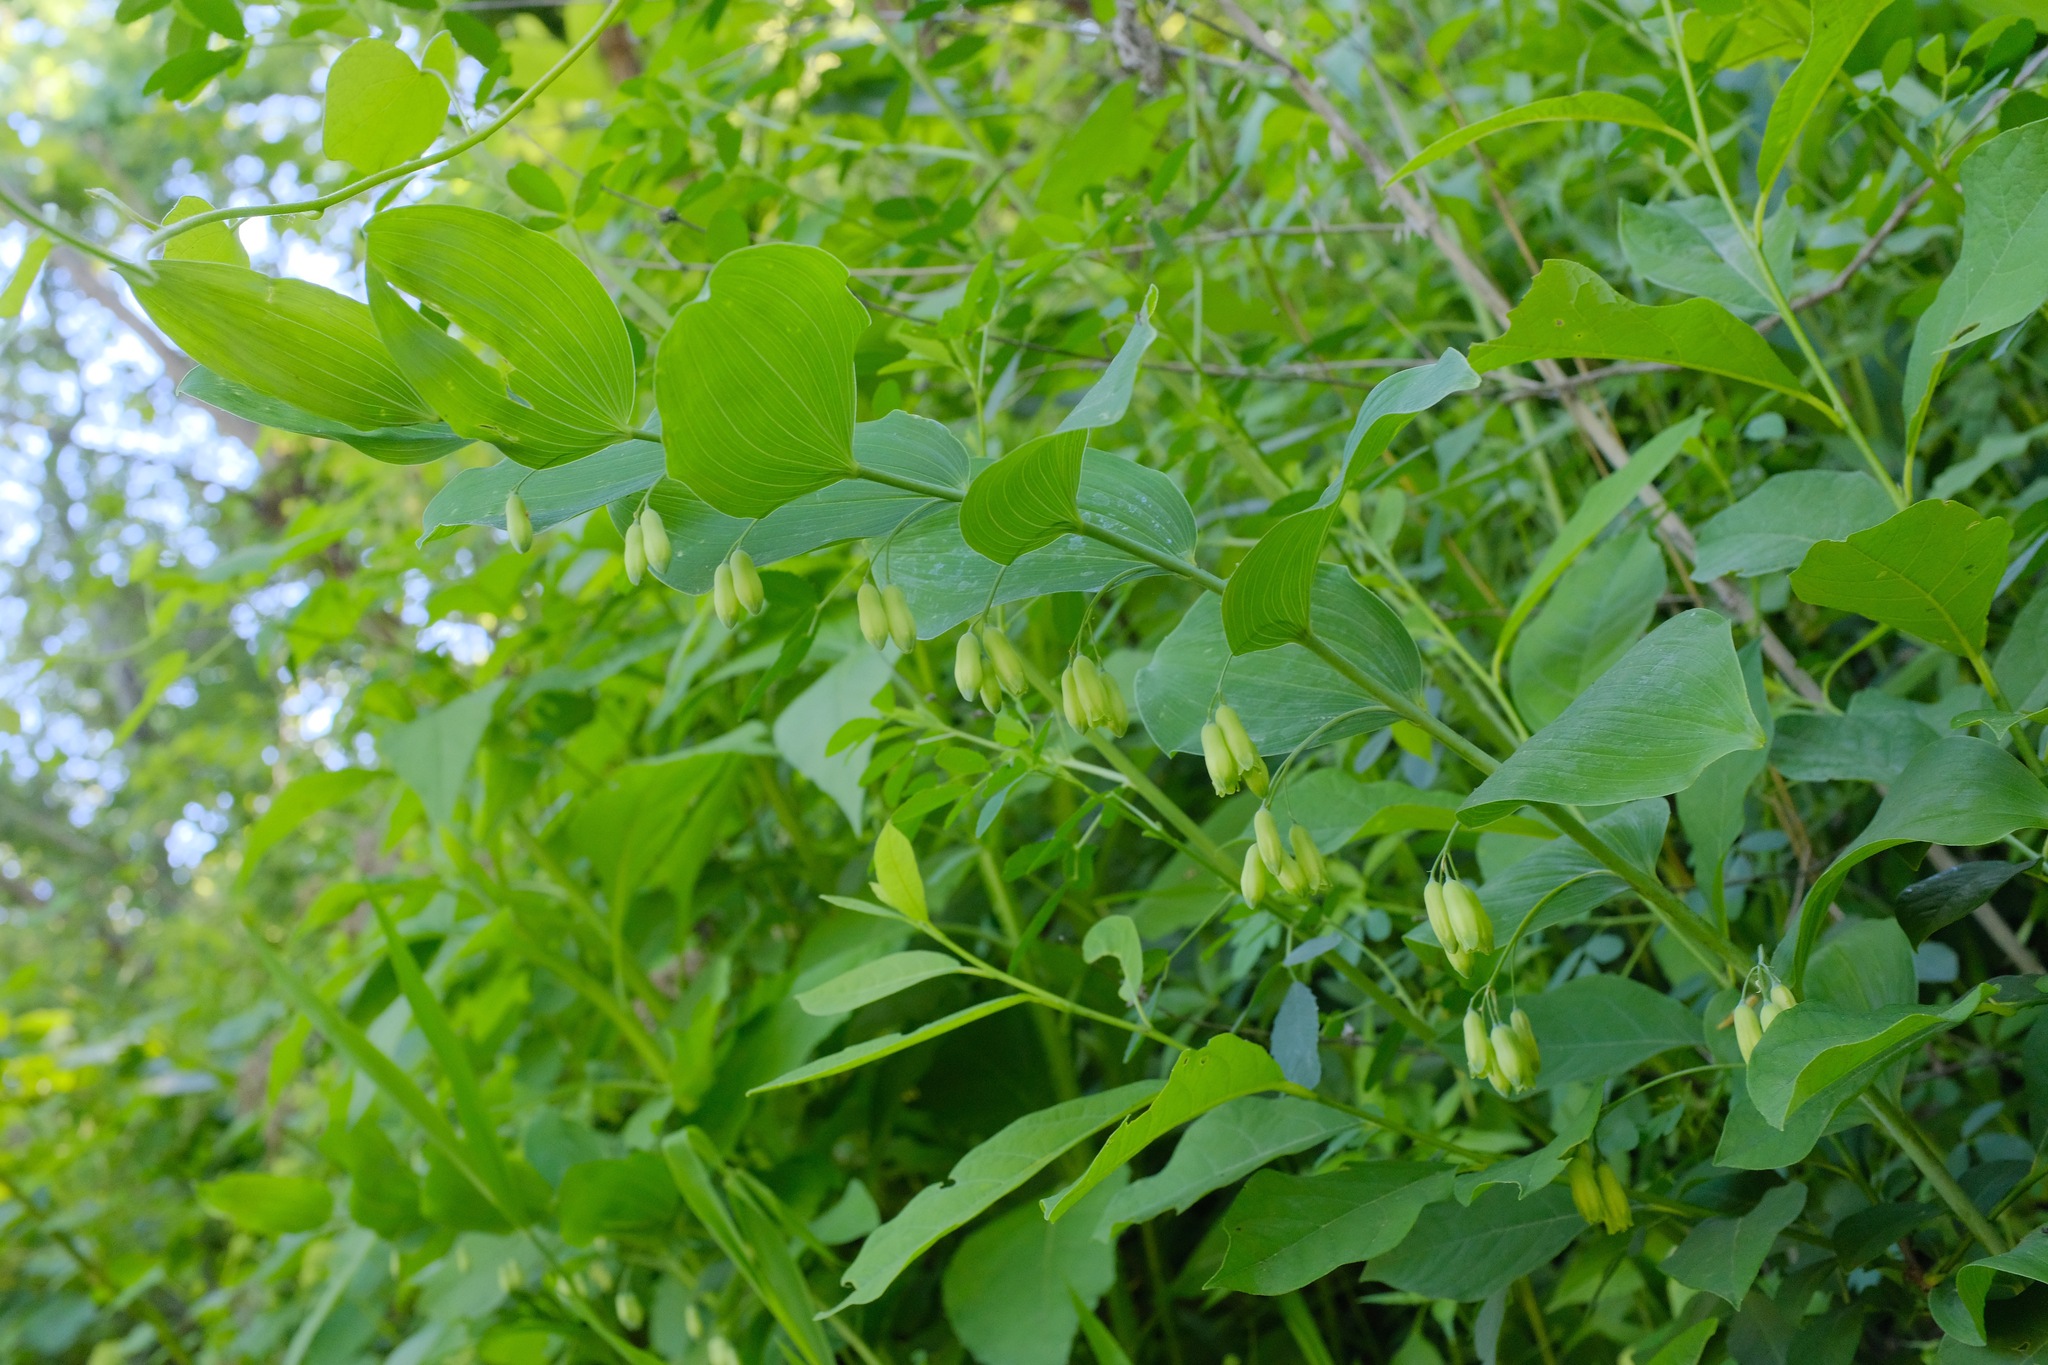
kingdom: Plantae
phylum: Tracheophyta
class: Liliopsida
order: Asparagales
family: Asparagaceae
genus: Polygonatum
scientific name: Polygonatum biflorum
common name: American solomon's-seal
